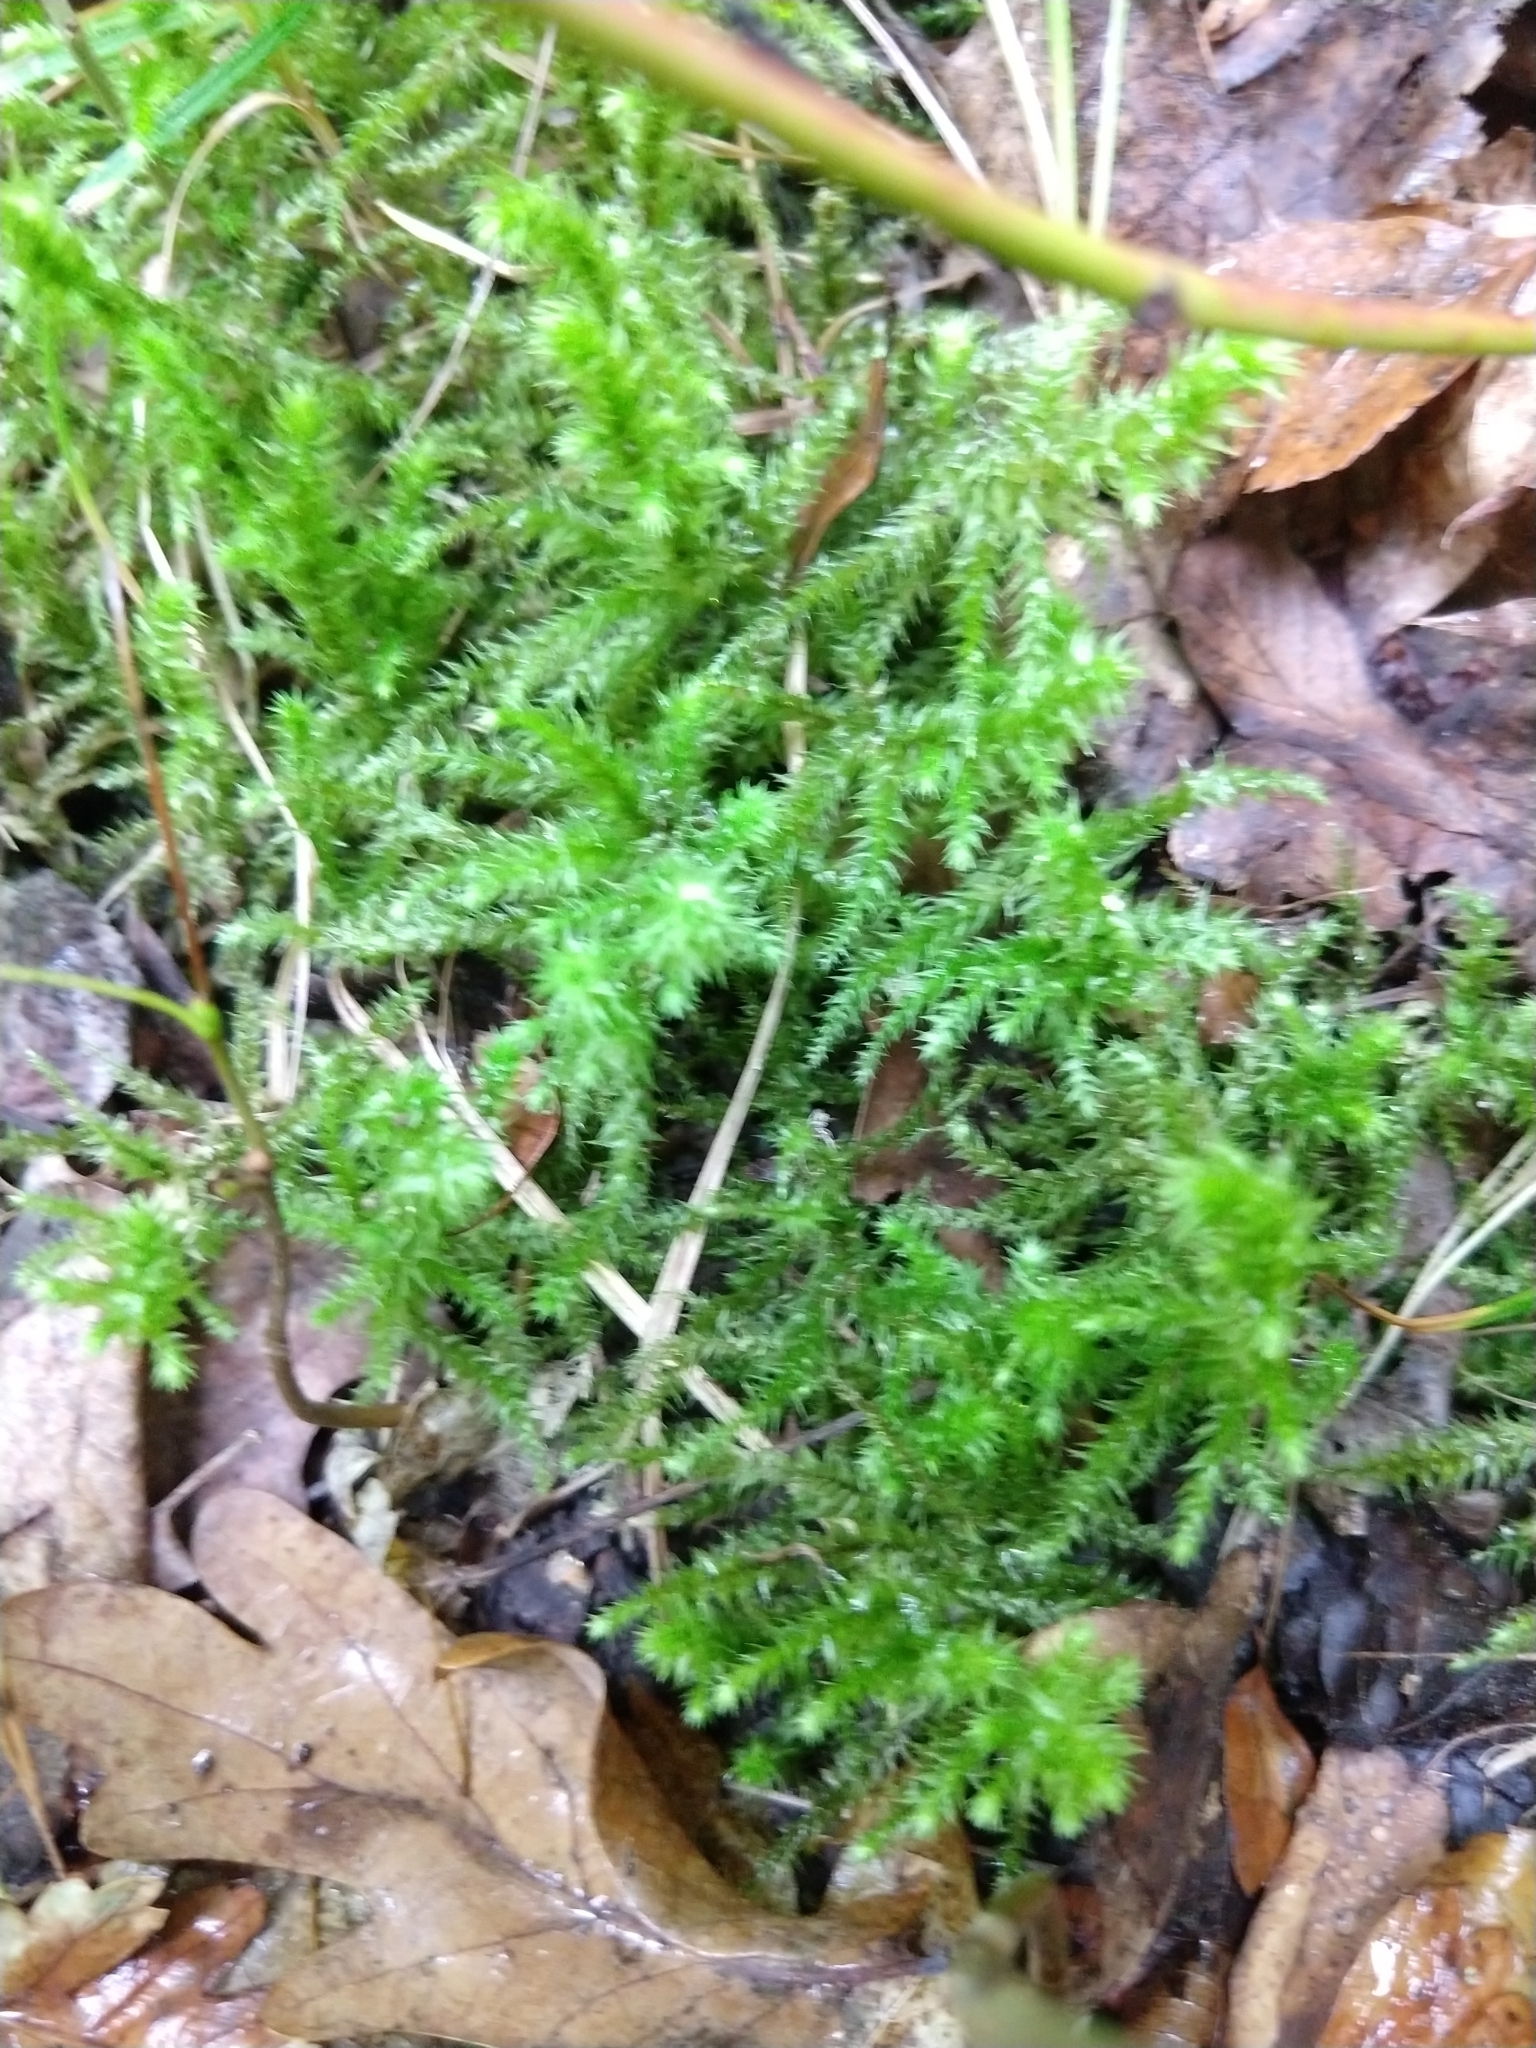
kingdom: Plantae
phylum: Bryophyta
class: Bryopsida
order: Hypnales
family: Hylocomiaceae
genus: Hylocomiadelphus
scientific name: Hylocomiadelphus triquetrus
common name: Rough goose neck moss
